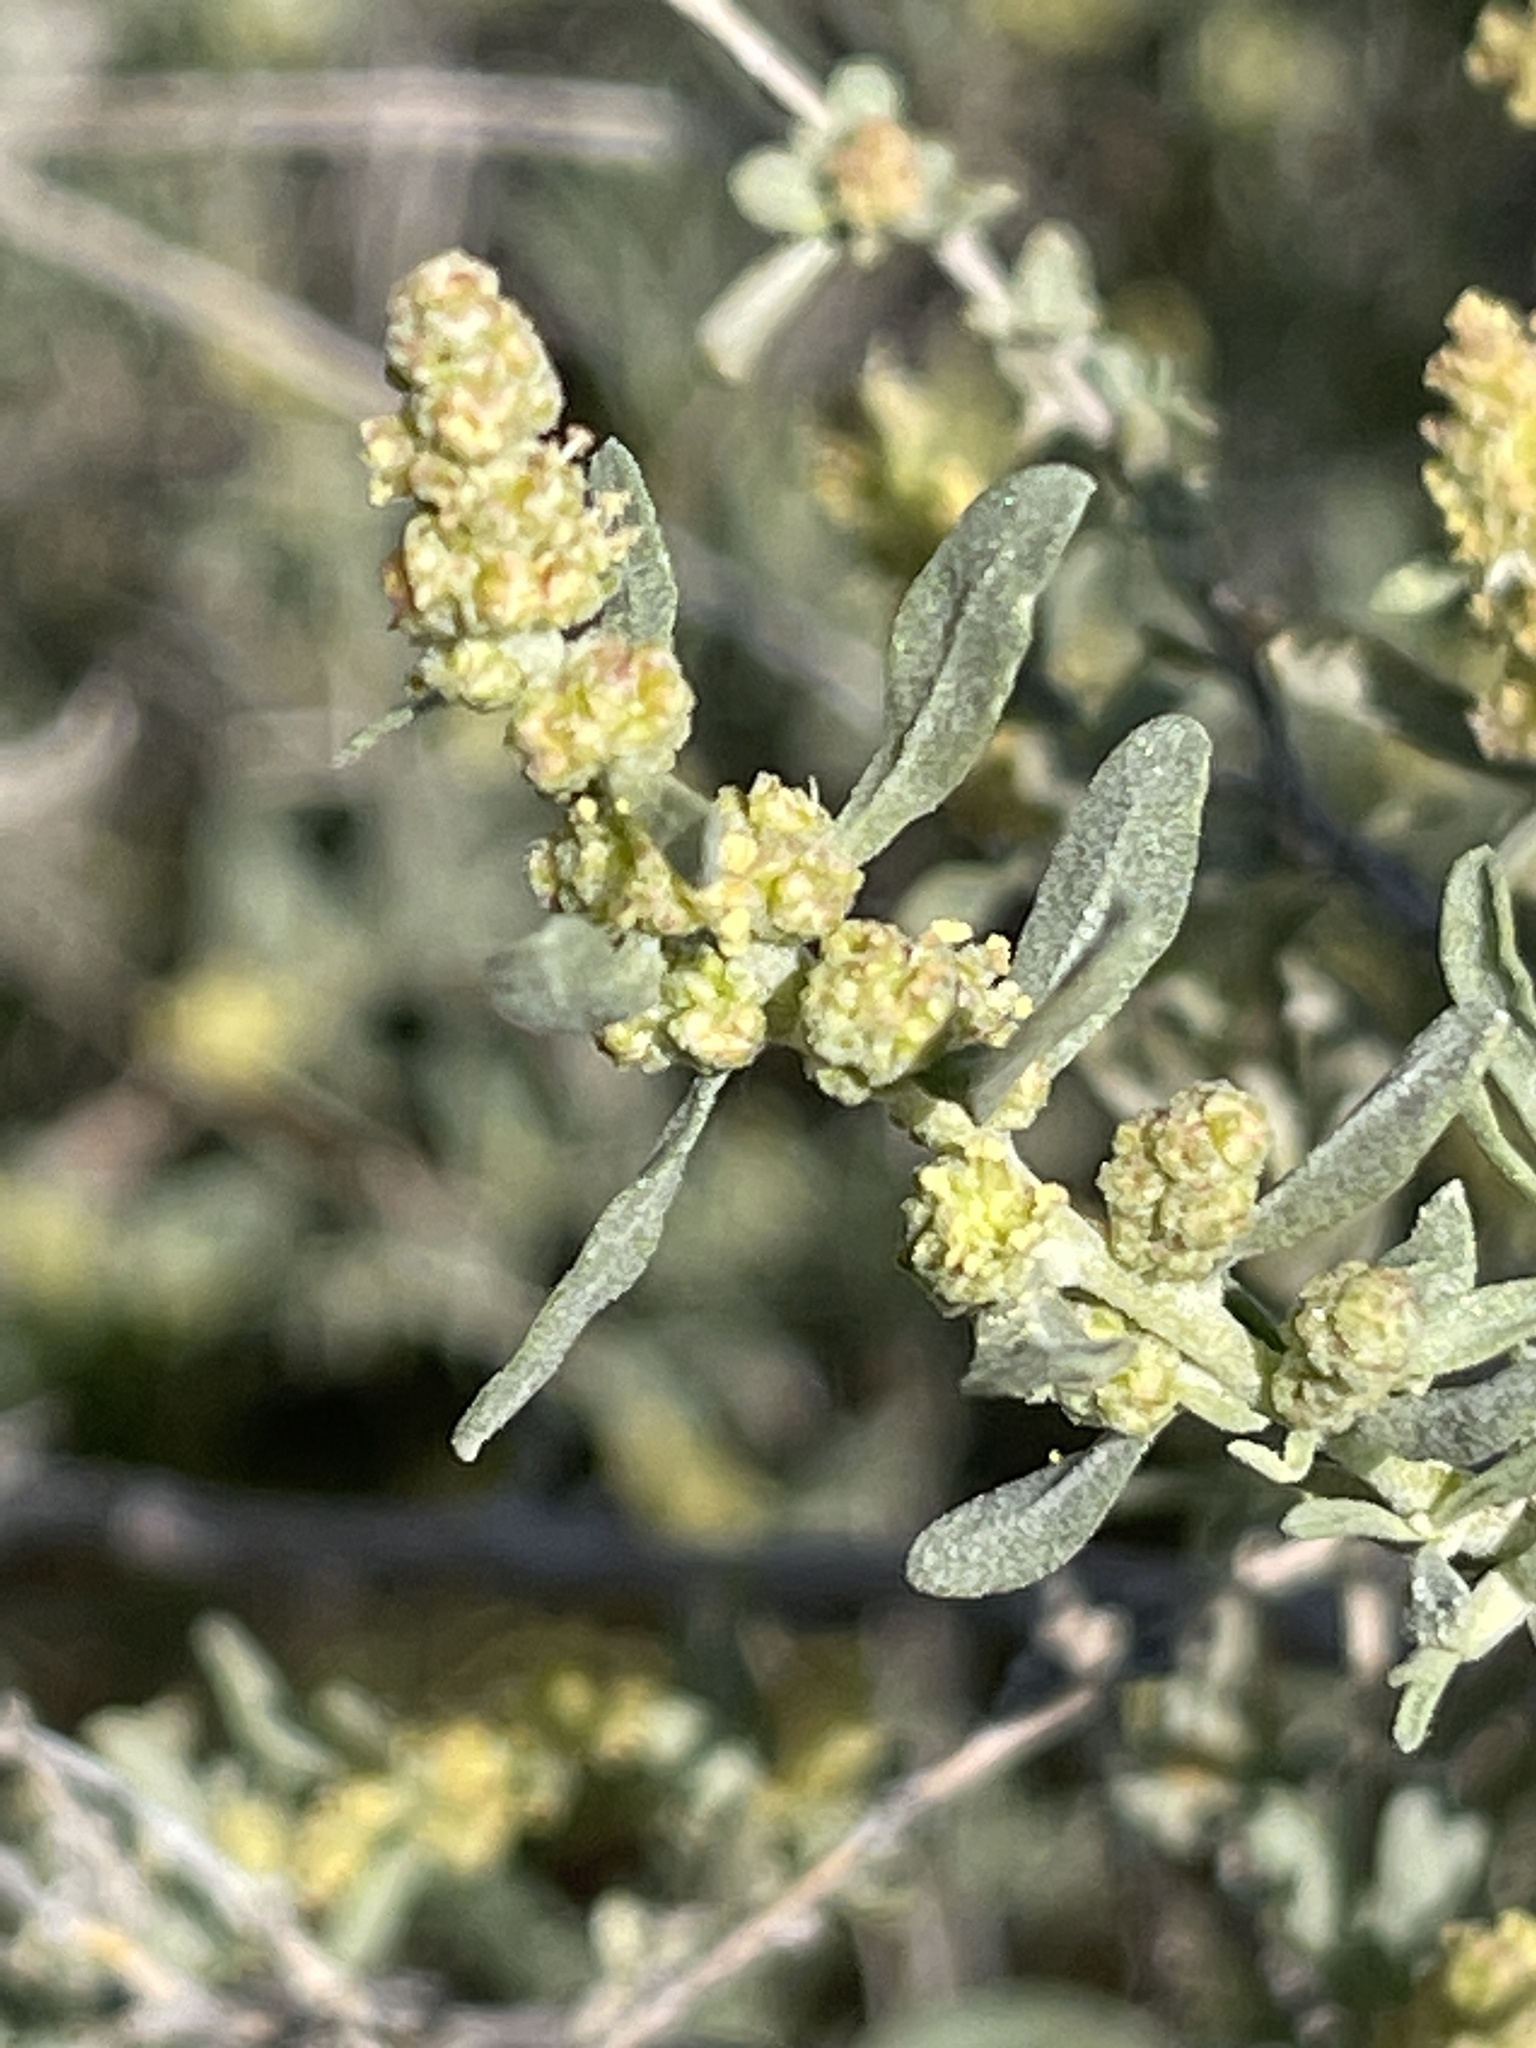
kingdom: Plantae
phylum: Tracheophyta
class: Magnoliopsida
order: Caryophyllales
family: Amaranthaceae
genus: Atriplex
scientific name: Atriplex canescens
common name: Four-wing saltbush
